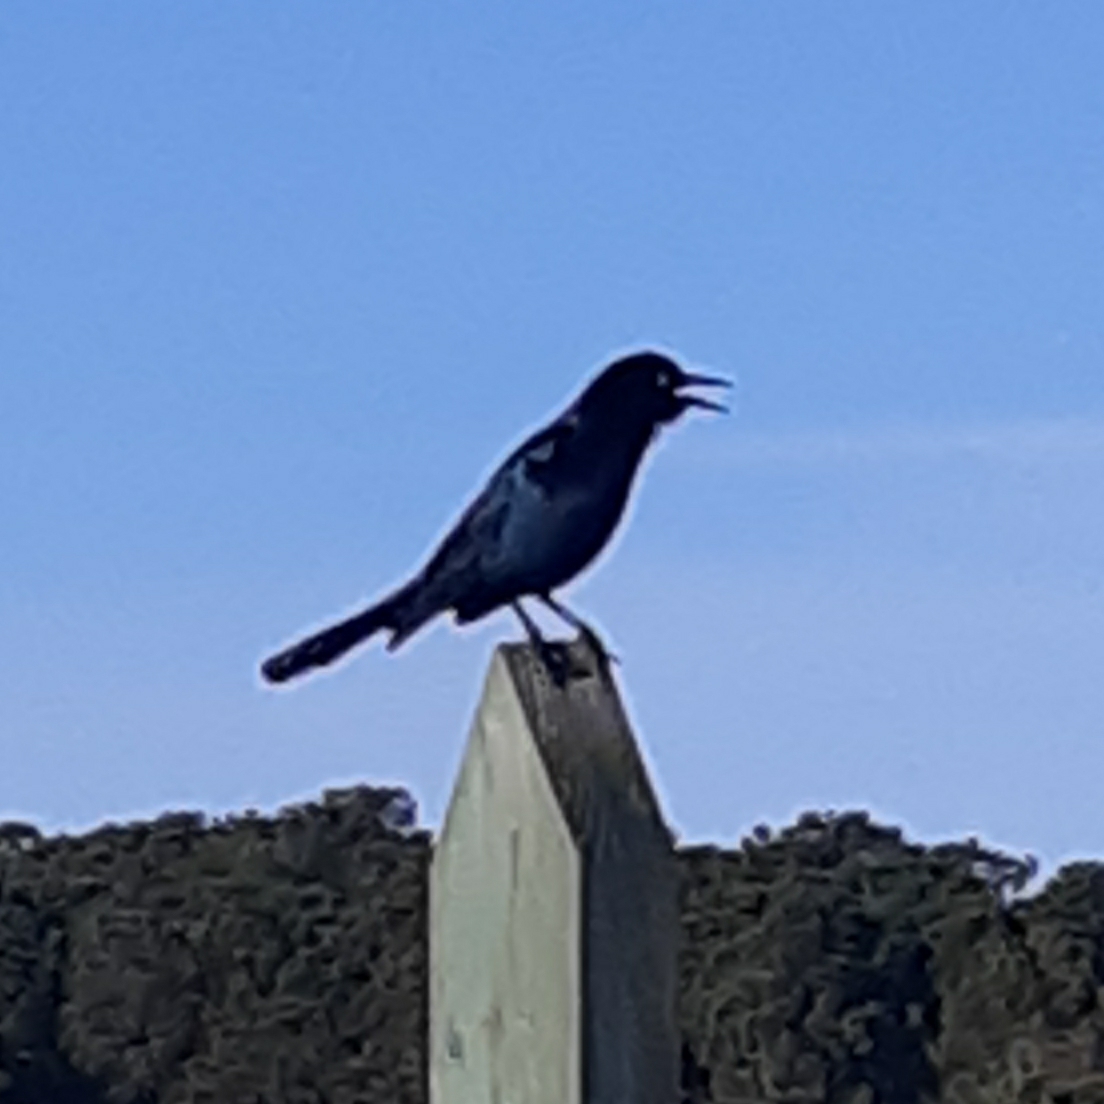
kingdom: Animalia
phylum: Chordata
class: Aves
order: Passeriformes
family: Icteridae
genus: Quiscalus
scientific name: Quiscalus major
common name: Boat-tailed grackle
